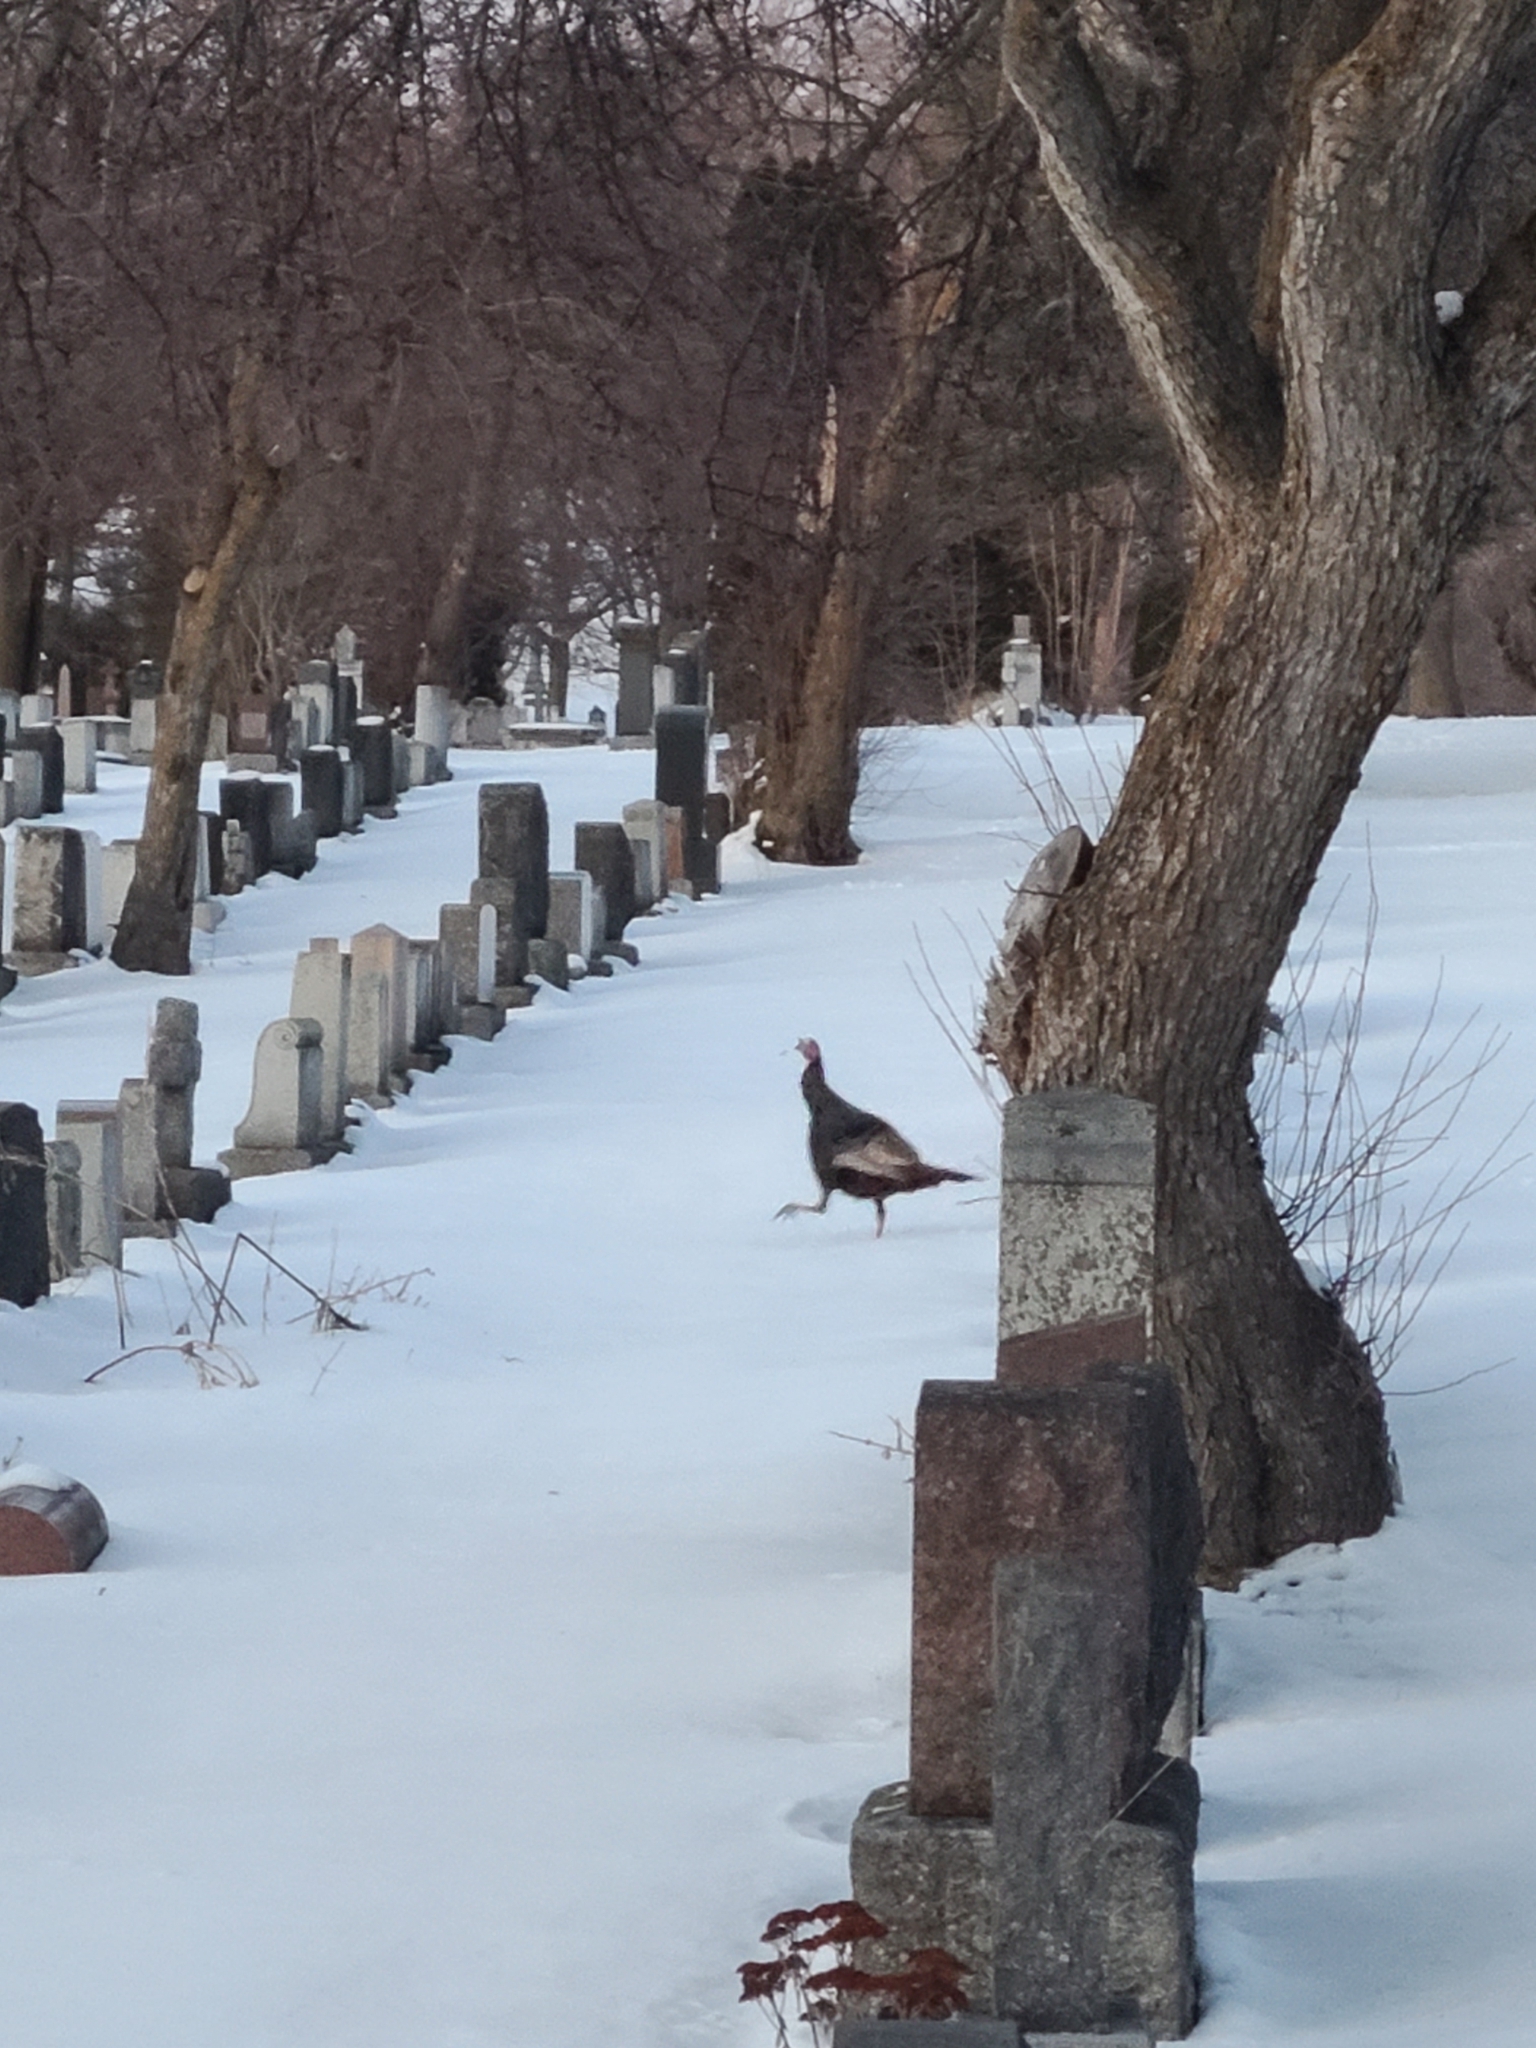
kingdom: Animalia
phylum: Chordata
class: Aves
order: Galliformes
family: Phasianidae
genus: Meleagris
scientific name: Meleagris gallopavo
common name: Wild turkey
